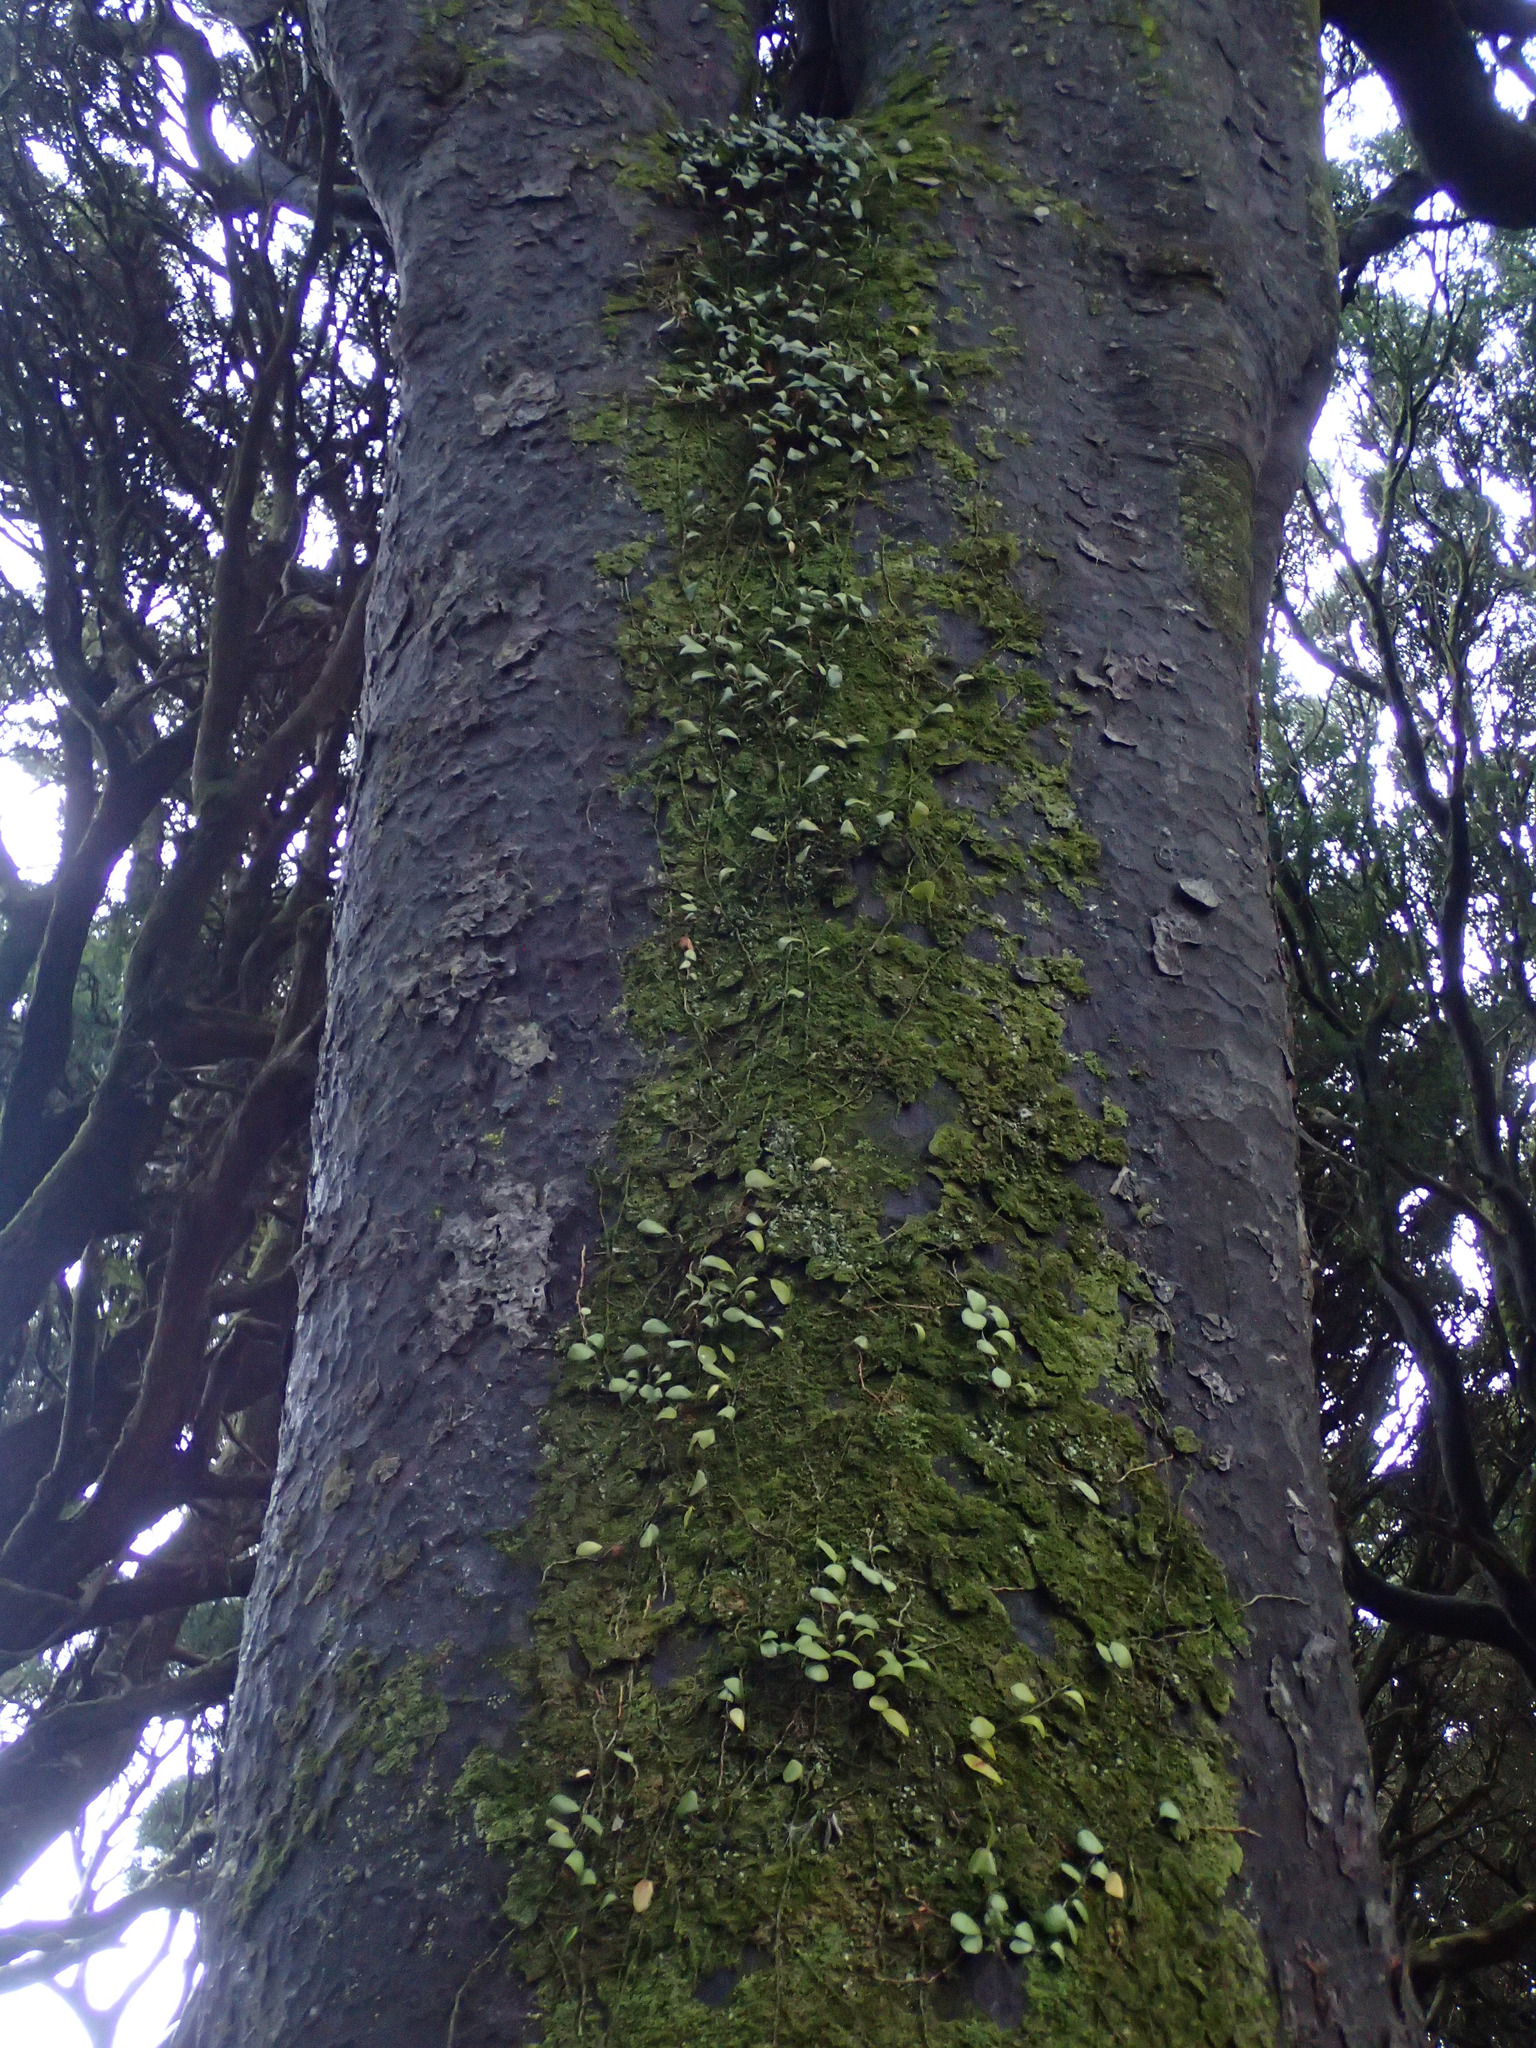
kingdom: Plantae
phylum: Tracheophyta
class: Polypodiopsida
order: Polypodiales
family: Polypodiaceae
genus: Pyrrosia
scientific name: Pyrrosia eleagnifolia
